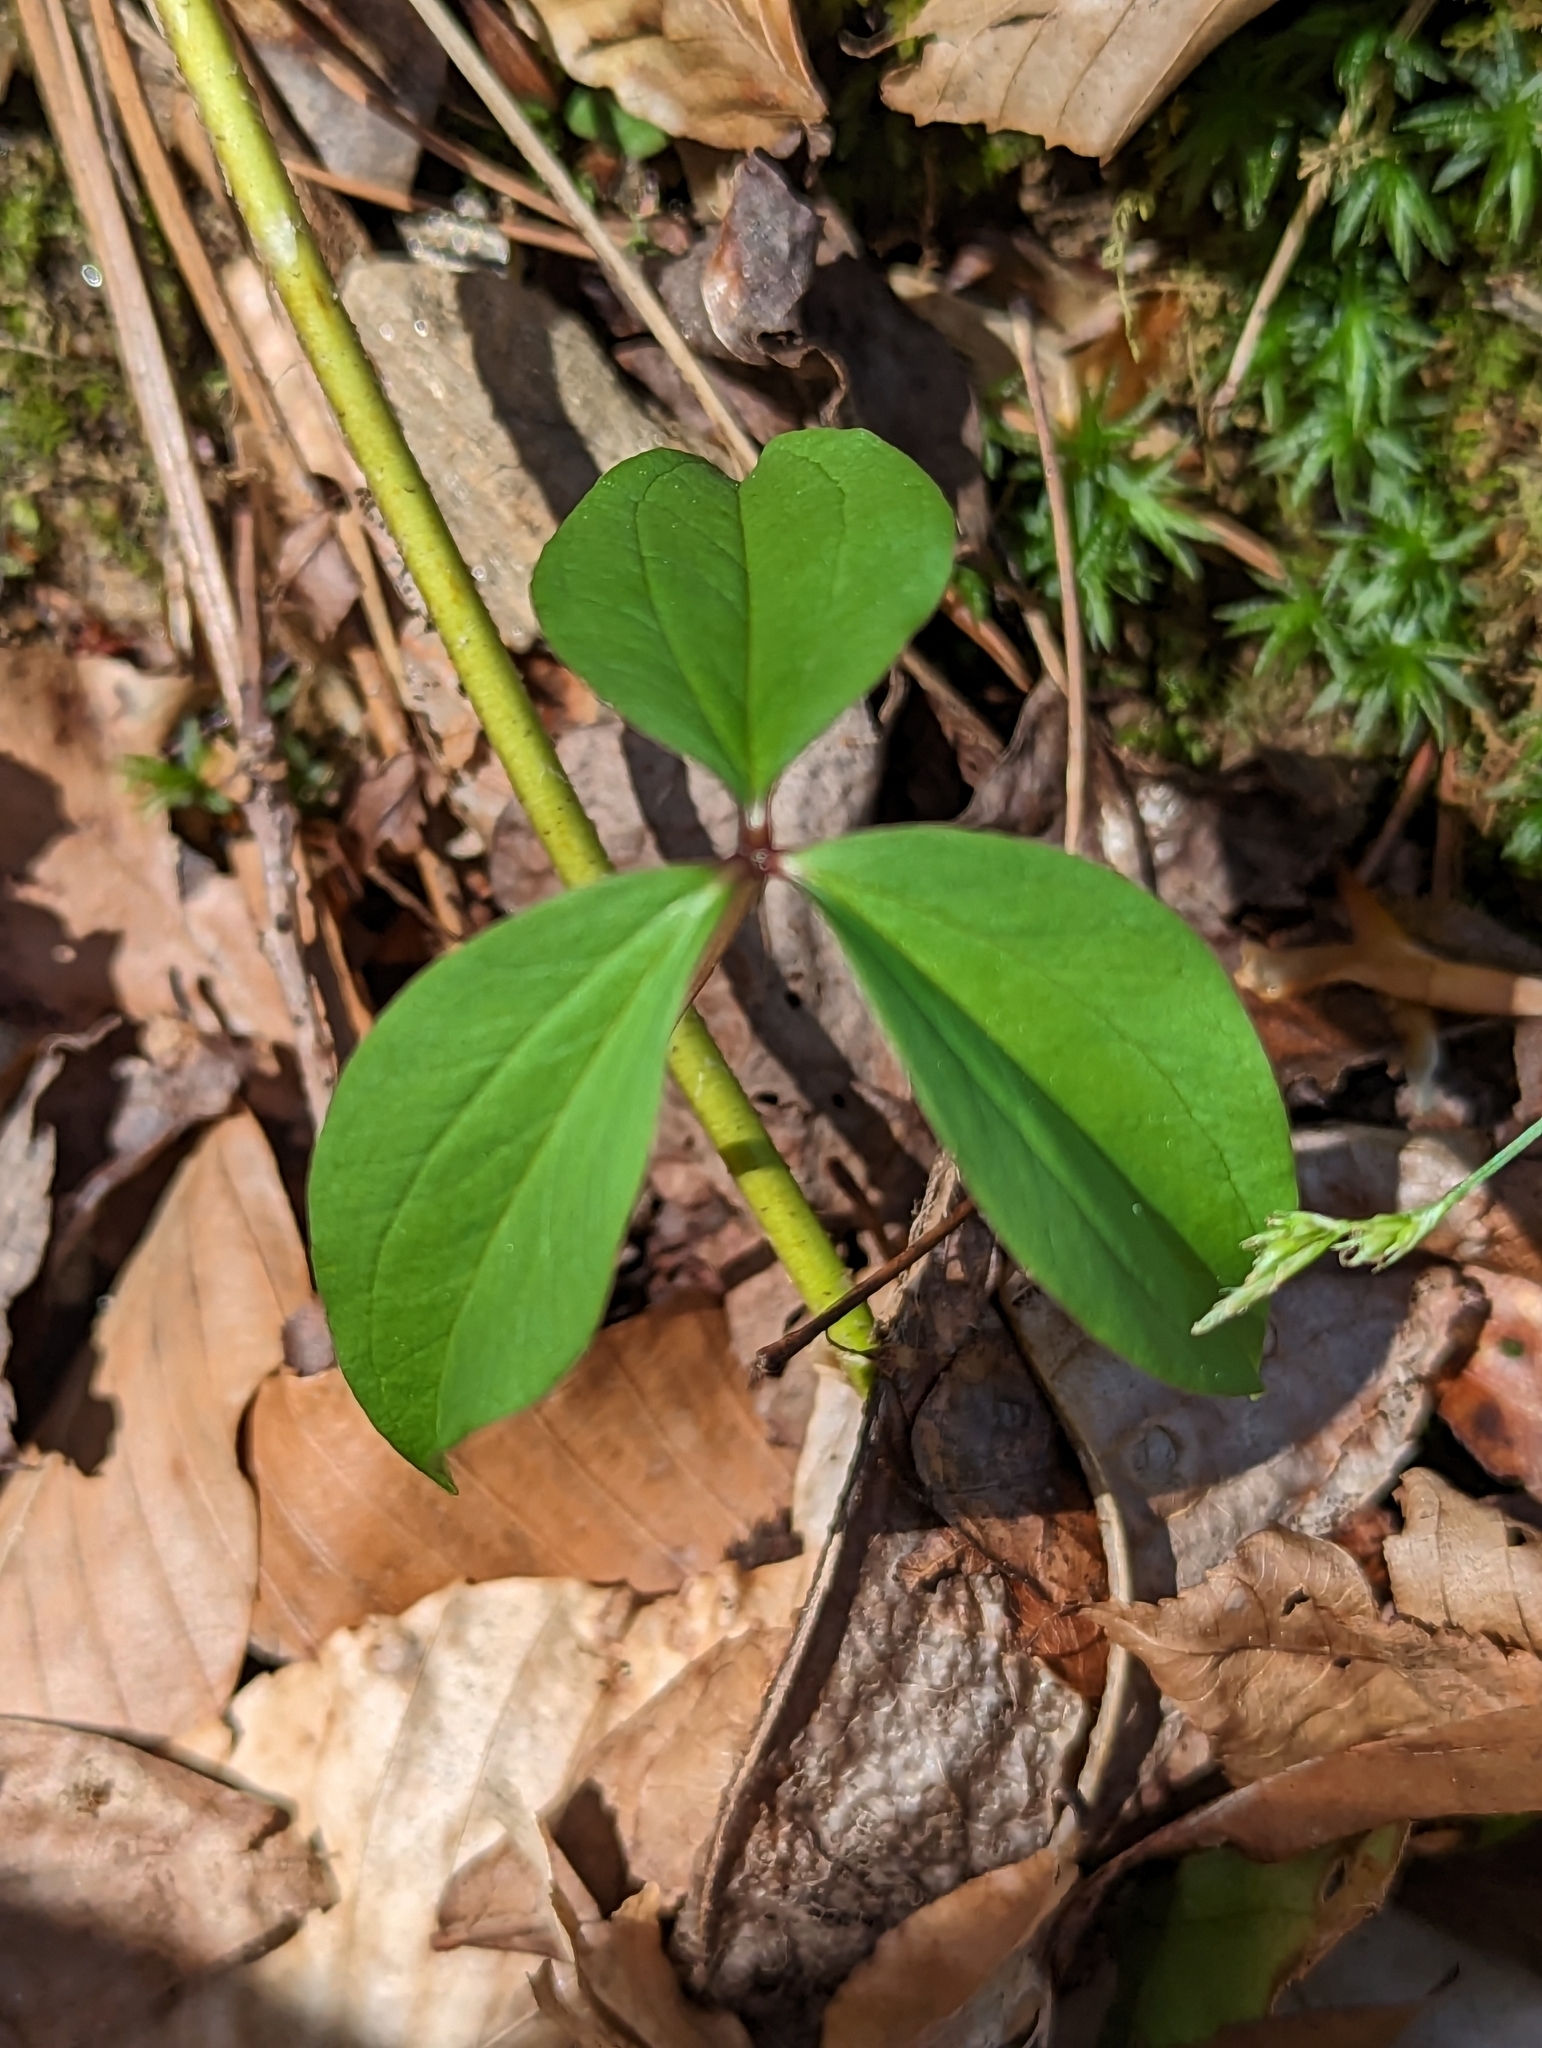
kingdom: Plantae
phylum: Tracheophyta
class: Liliopsida
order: Liliales
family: Melanthiaceae
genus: Trillium
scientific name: Trillium catesbaei
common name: Bashful trillium
